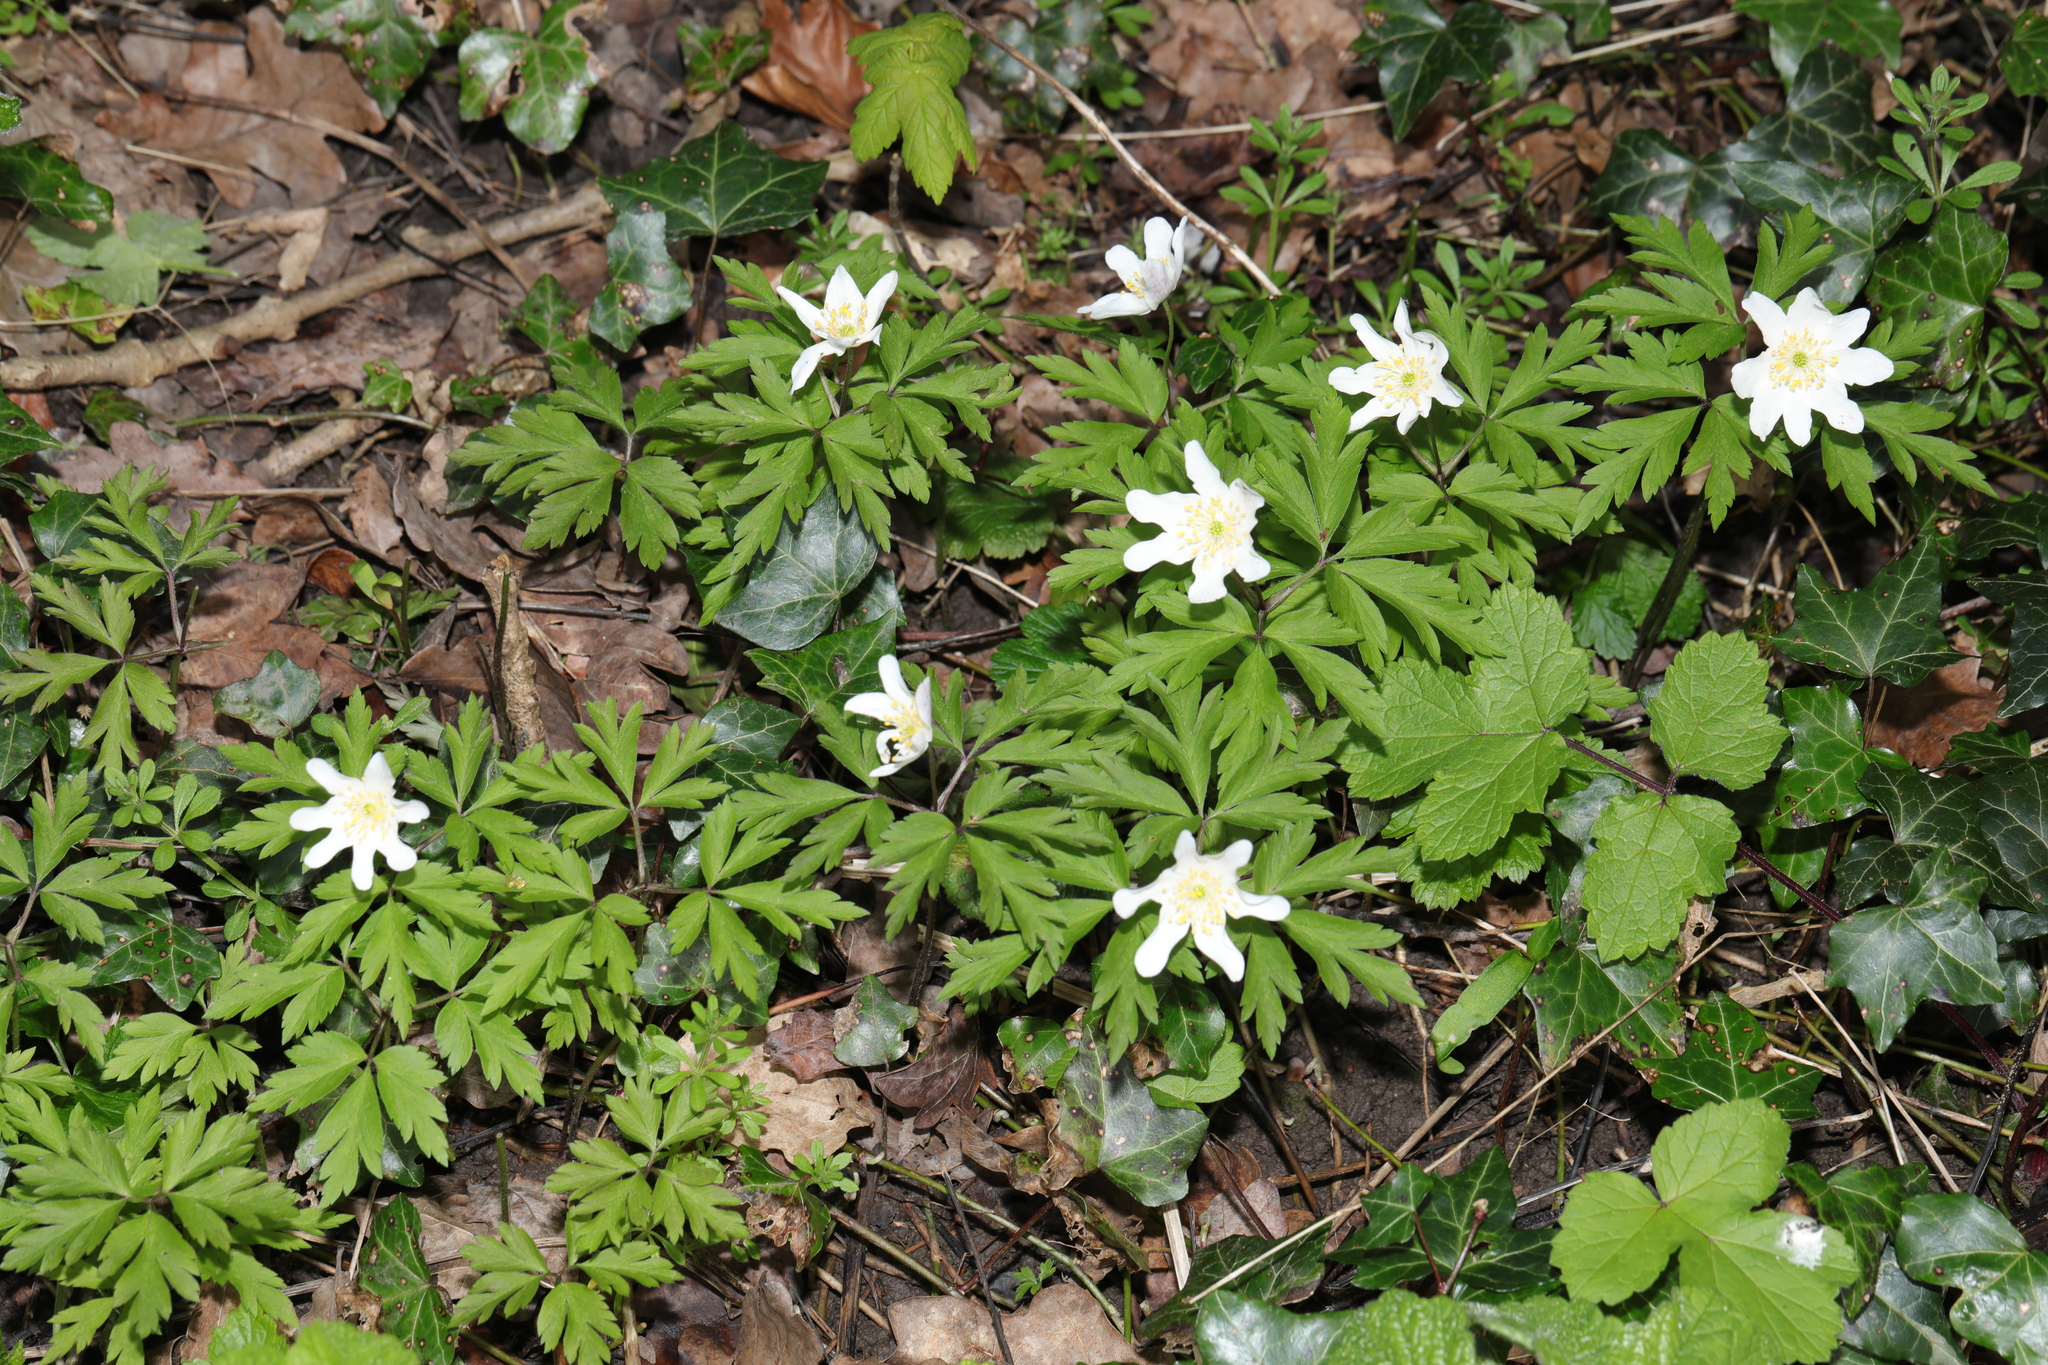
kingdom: Plantae
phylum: Tracheophyta
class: Magnoliopsida
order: Ranunculales
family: Ranunculaceae
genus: Anemone
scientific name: Anemone nemorosa
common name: Wood anemone
